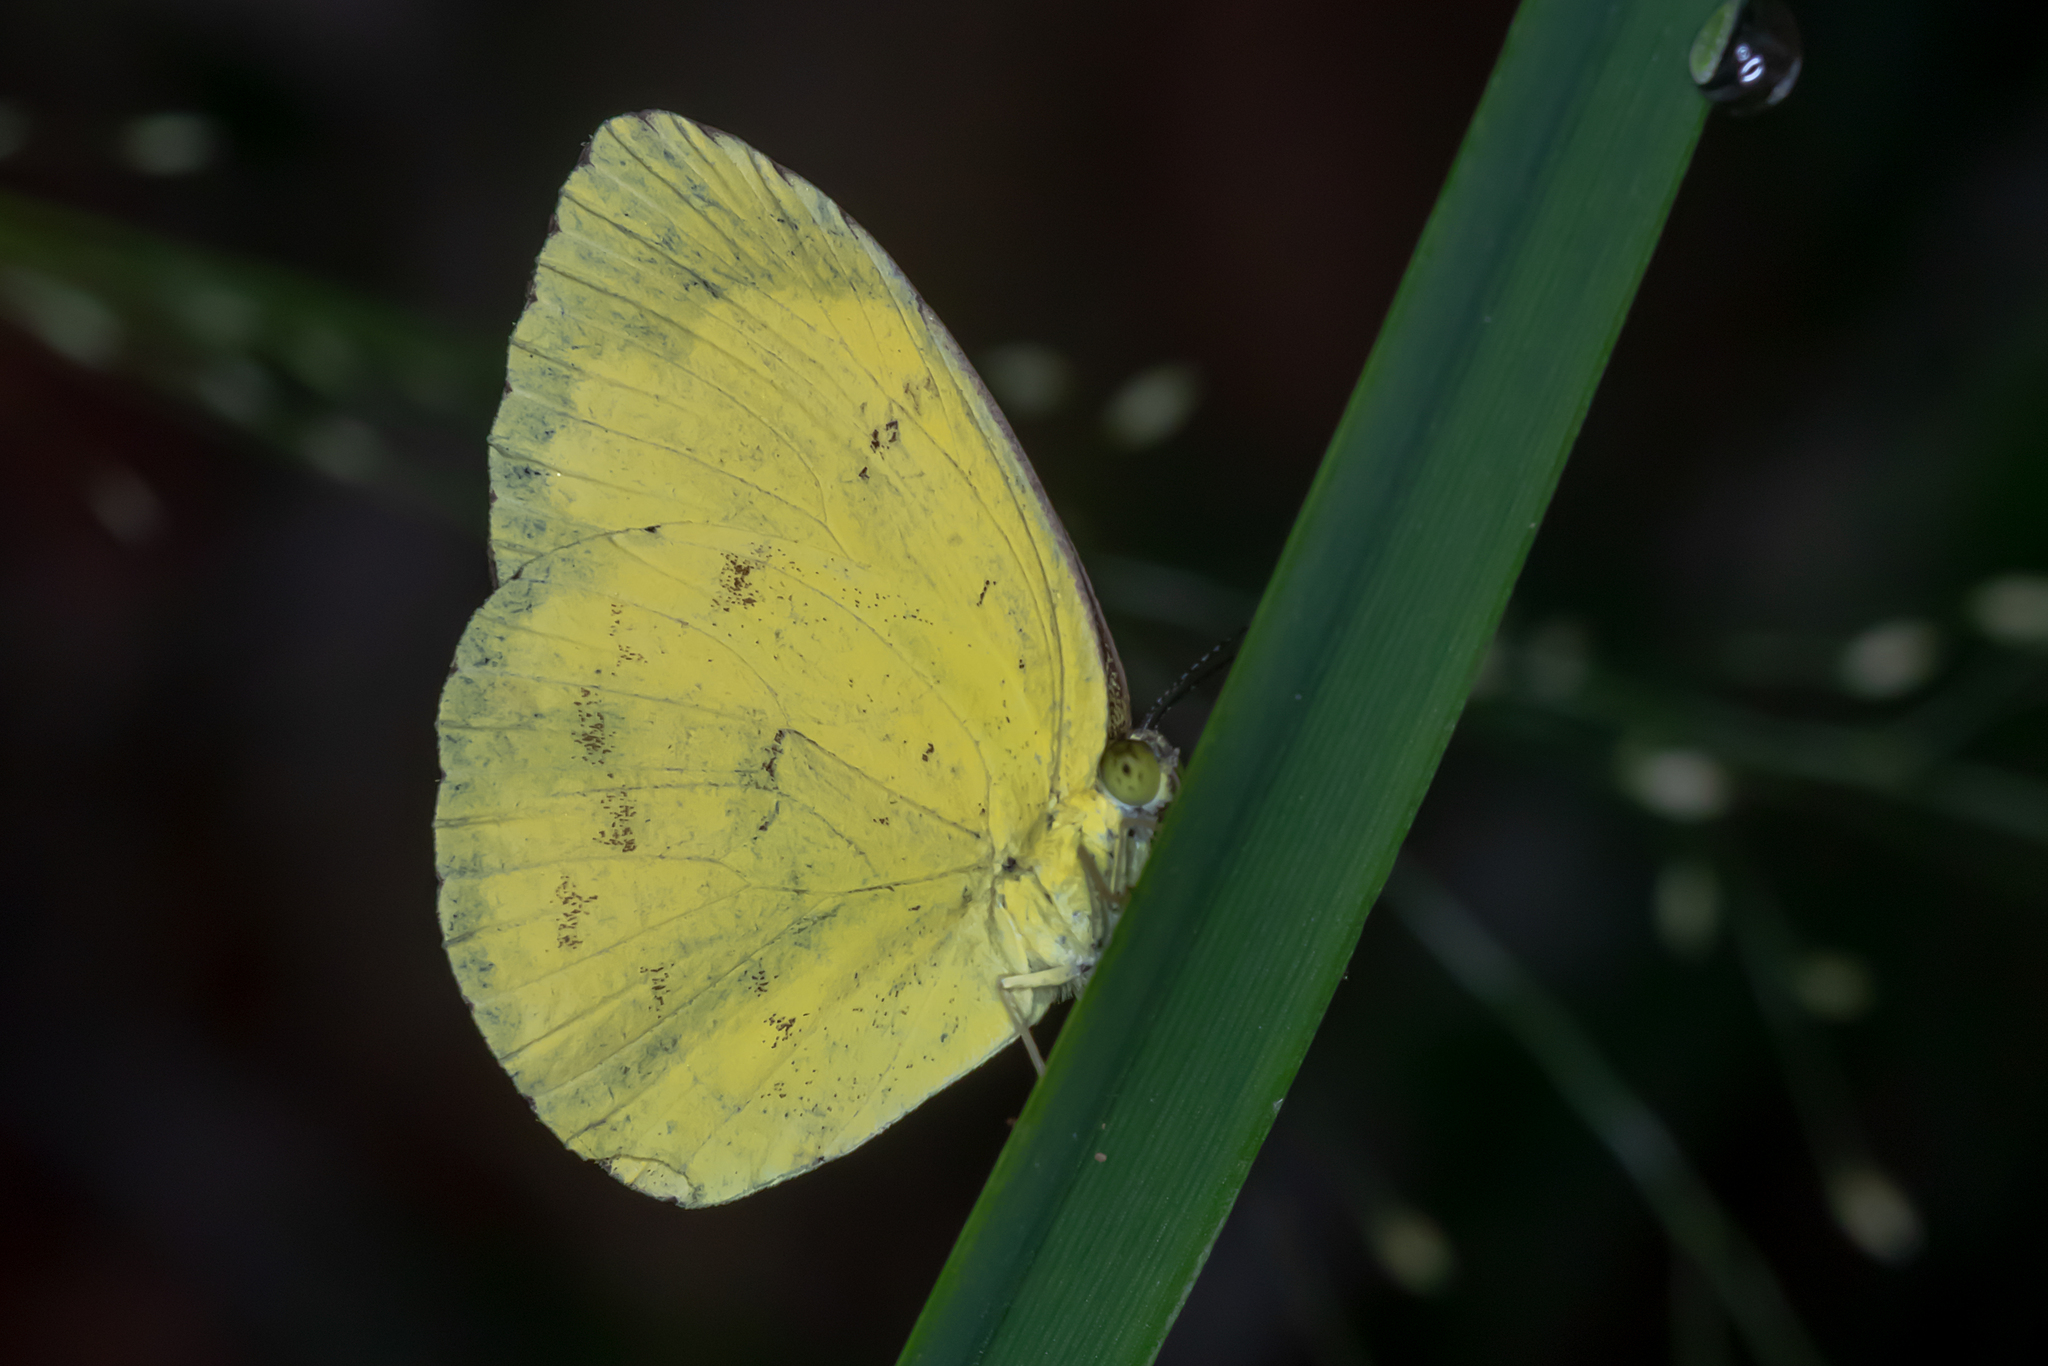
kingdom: Animalia
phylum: Arthropoda
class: Insecta
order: Lepidoptera
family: Pieridae
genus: Eurema
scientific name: Eurema hecabe
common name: Pale grass yellow
